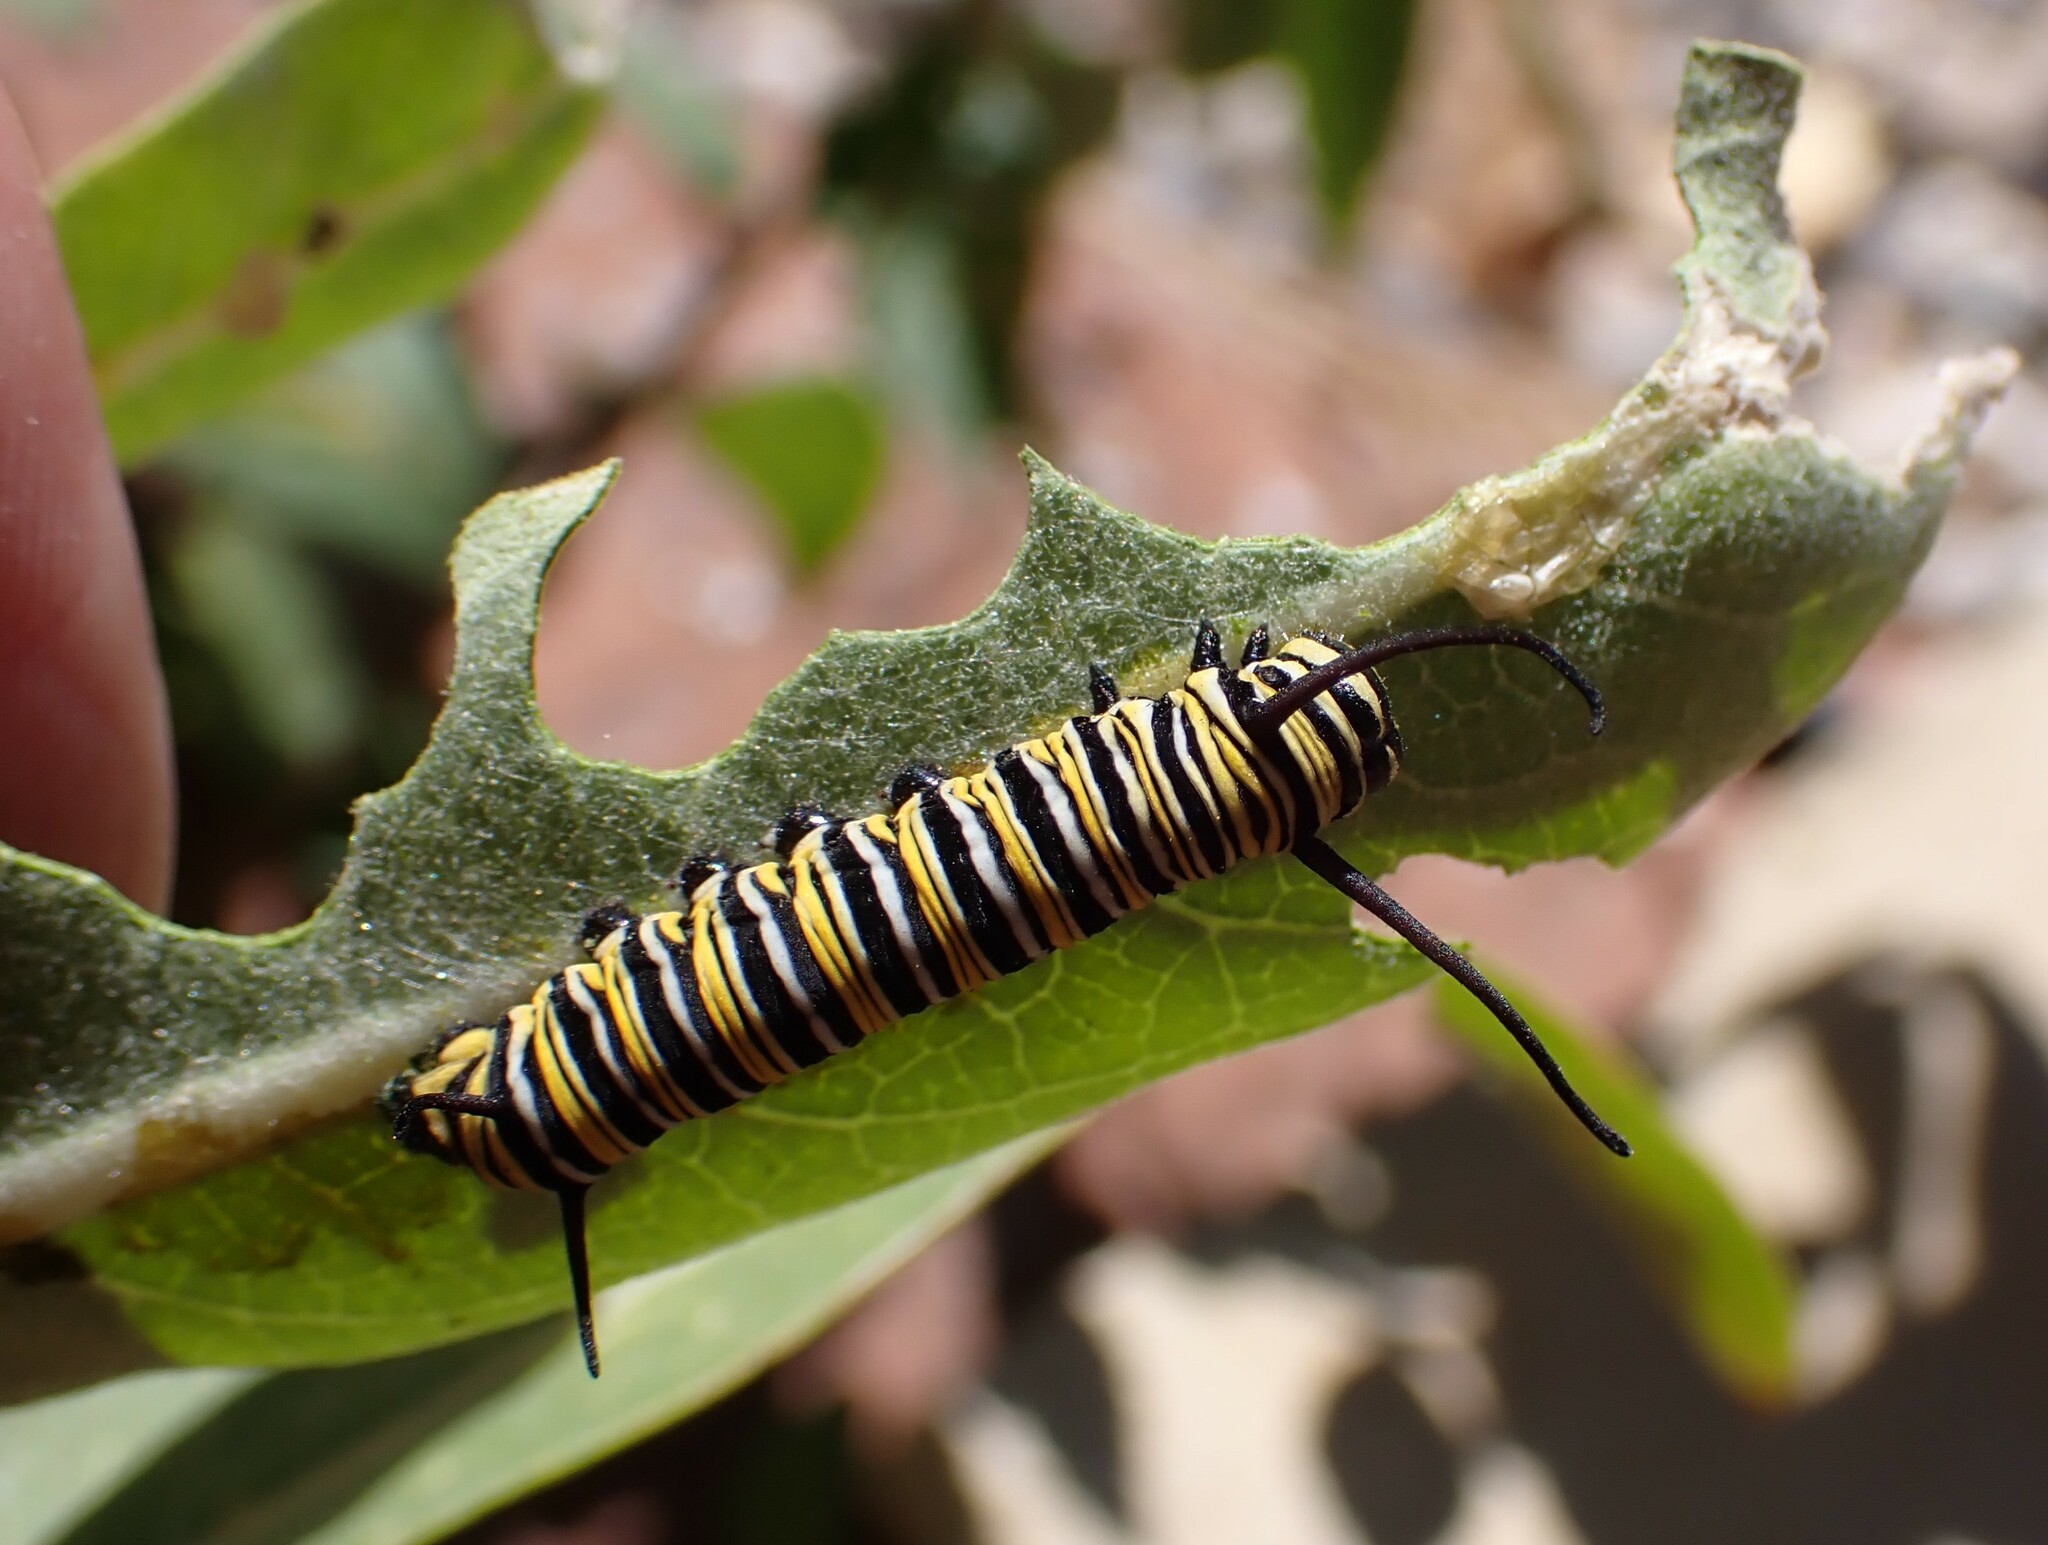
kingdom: Animalia
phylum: Arthropoda
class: Insecta
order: Lepidoptera
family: Nymphalidae
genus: Danaus
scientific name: Danaus plexippus
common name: Monarch
